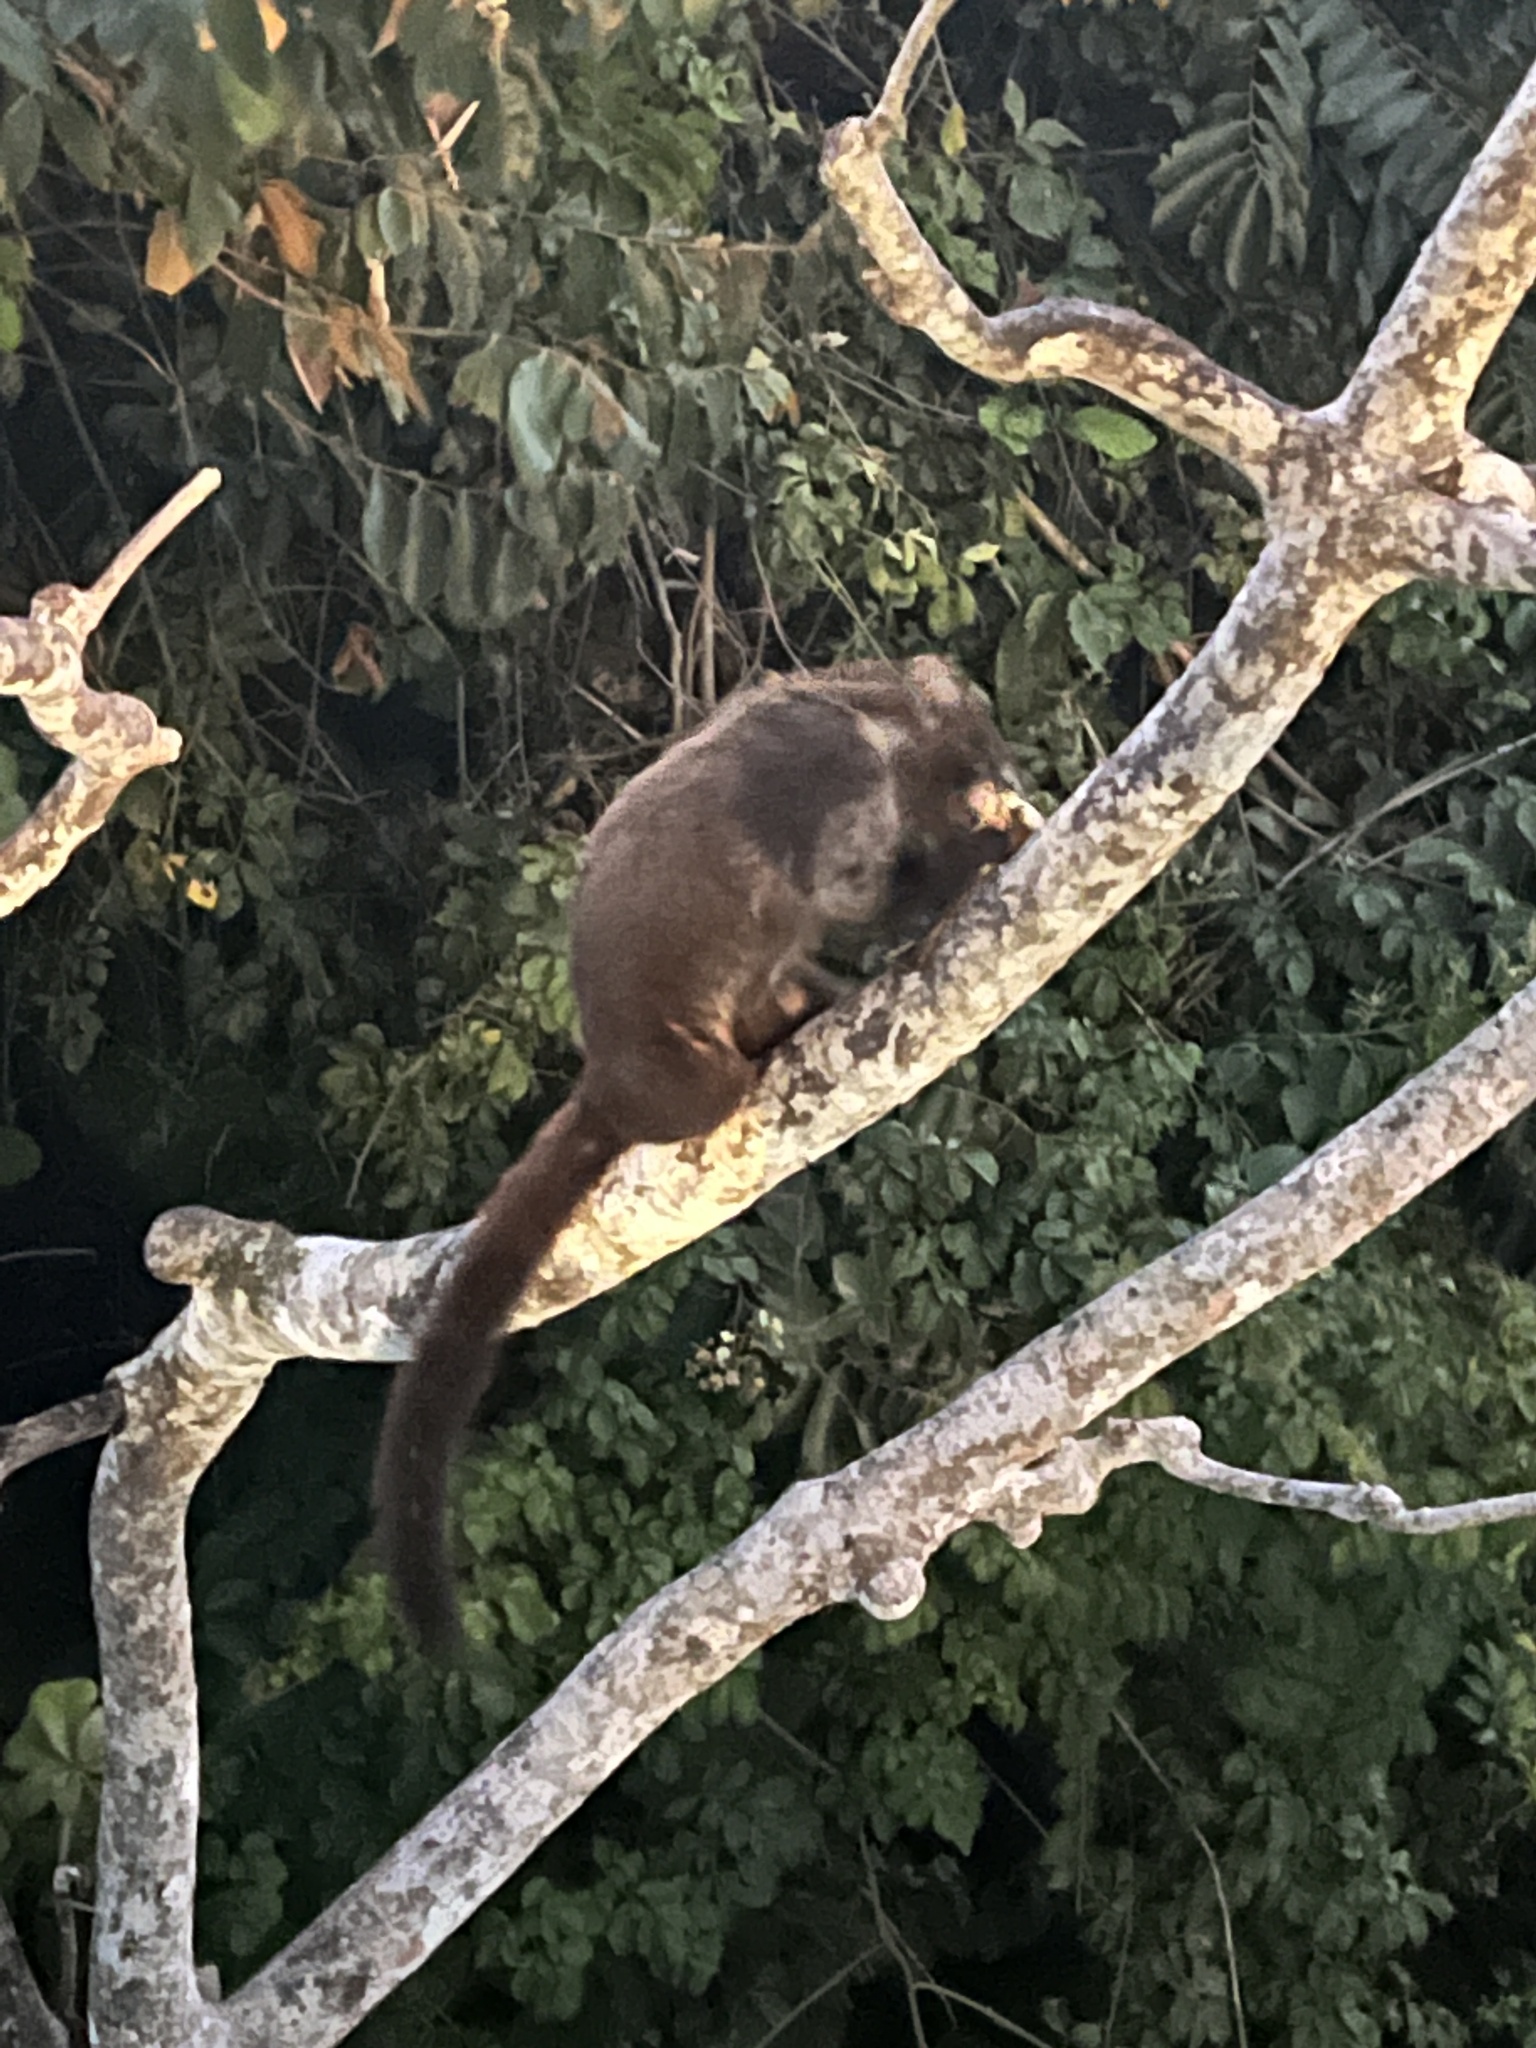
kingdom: Animalia
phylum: Chordata
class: Mammalia
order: Carnivora
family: Procyonidae
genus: Nasua
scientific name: Nasua narica
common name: White-nosed coati
